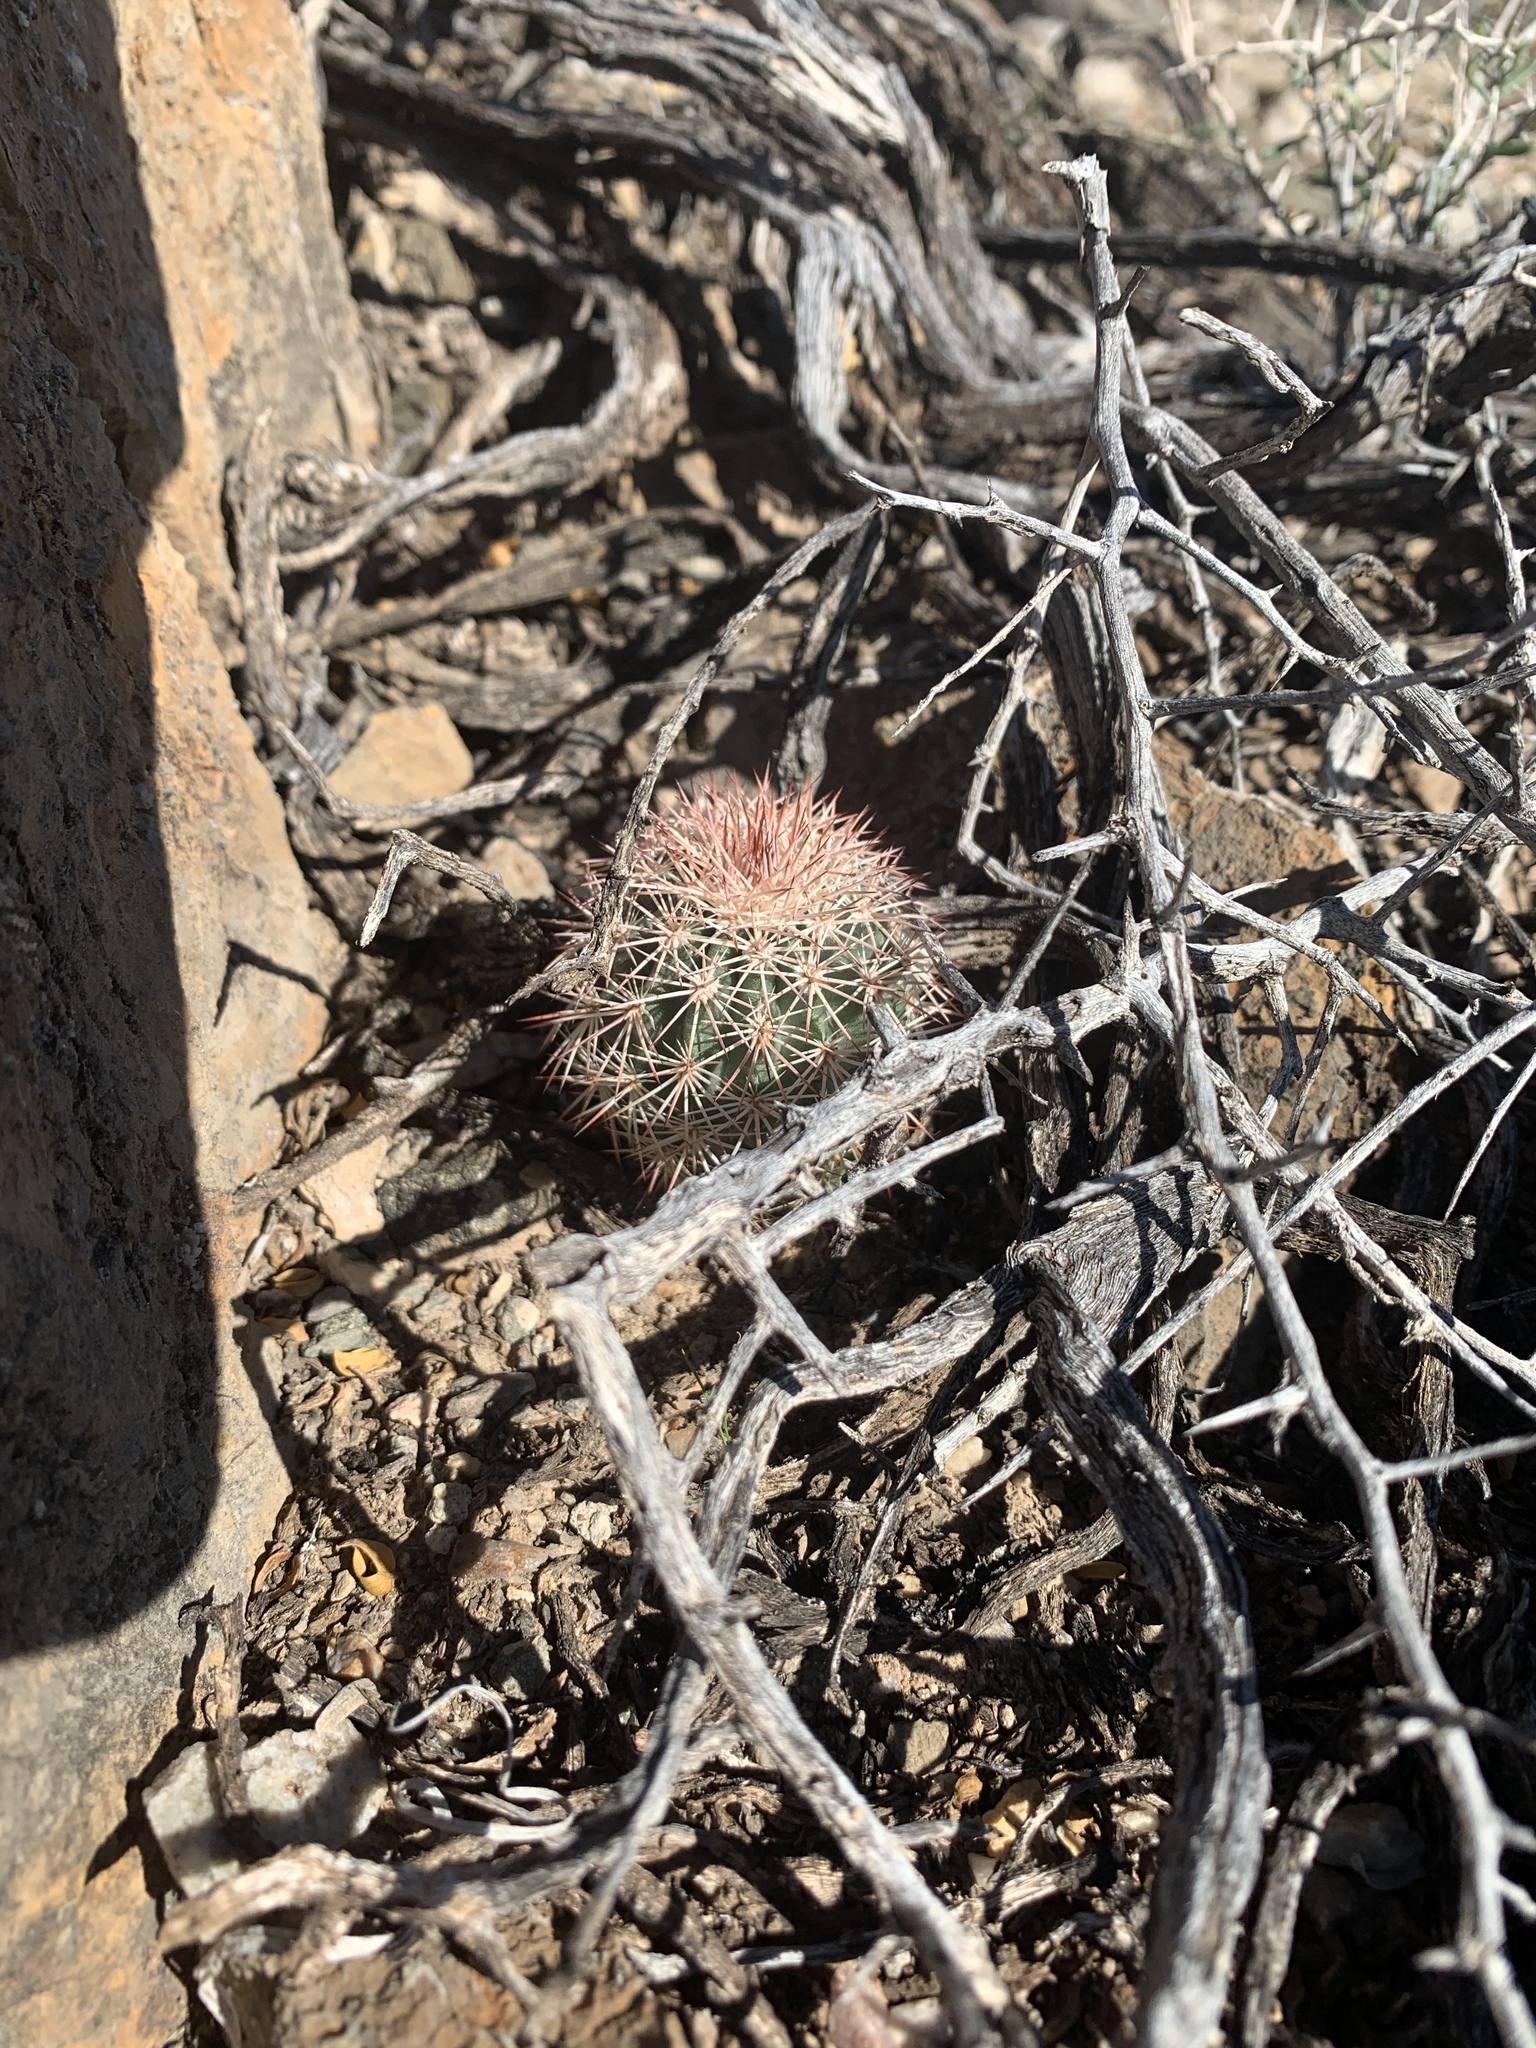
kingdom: Plantae
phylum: Tracheophyta
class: Magnoliopsida
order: Caryophyllales
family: Cactaceae
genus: Echinocereus
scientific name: Echinocereus dasyacanthus
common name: Spiny hedgehog cactus
